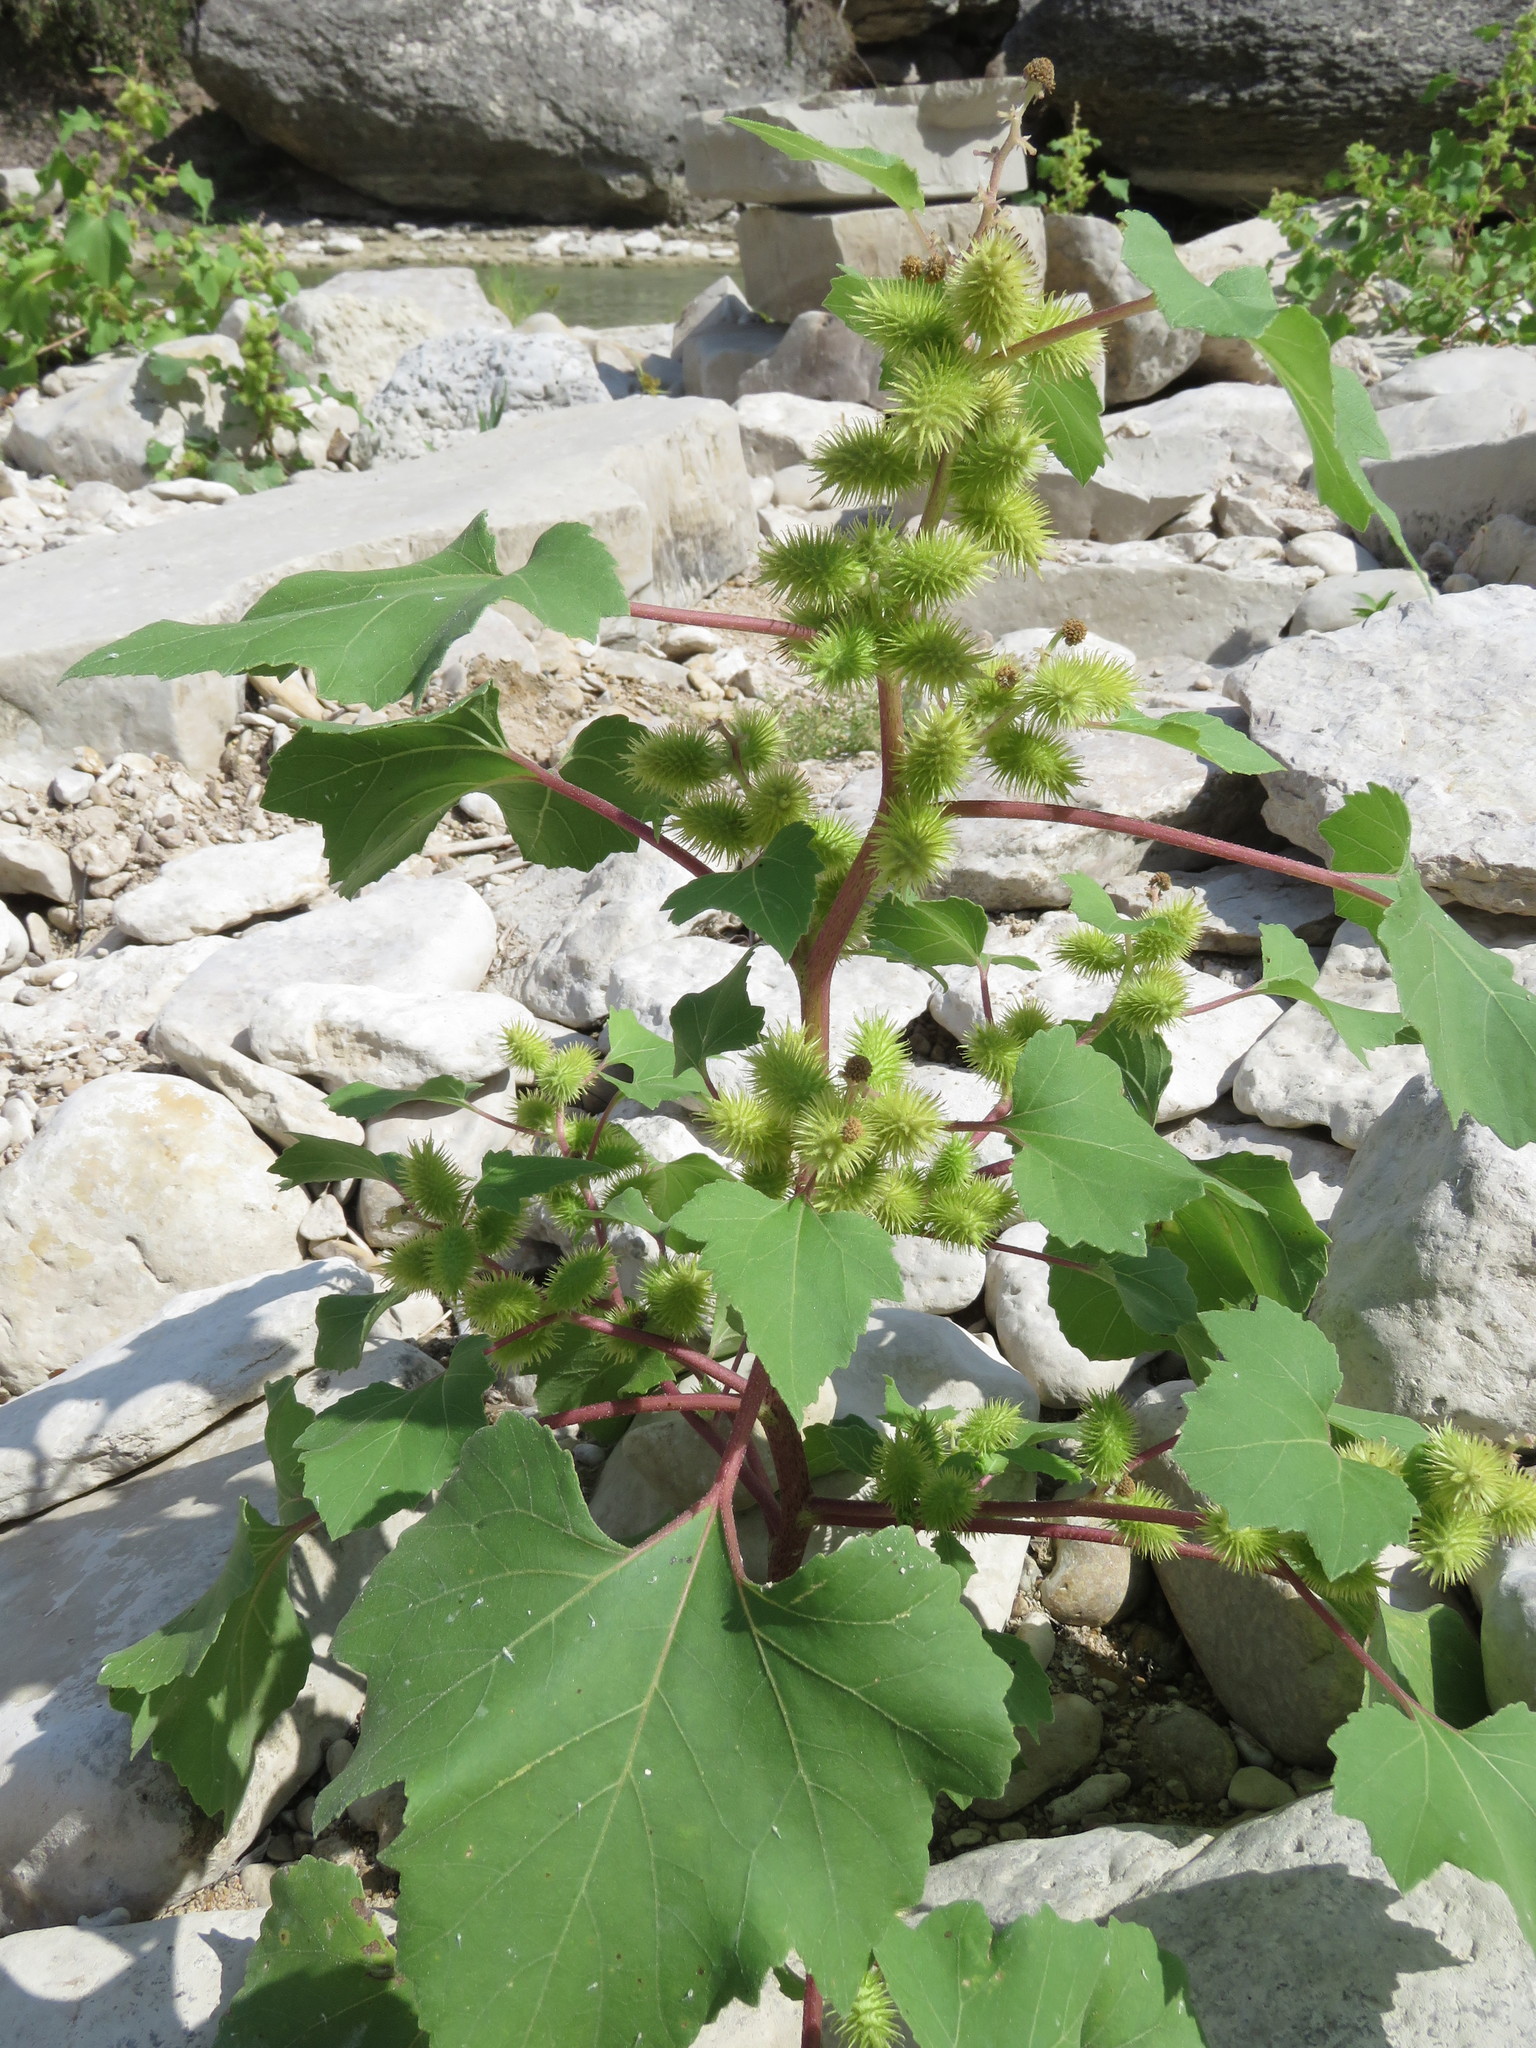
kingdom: Plantae
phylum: Tracheophyta
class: Magnoliopsida
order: Asterales
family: Asteraceae
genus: Xanthium
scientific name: Xanthium strumarium
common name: Rough cocklebur
